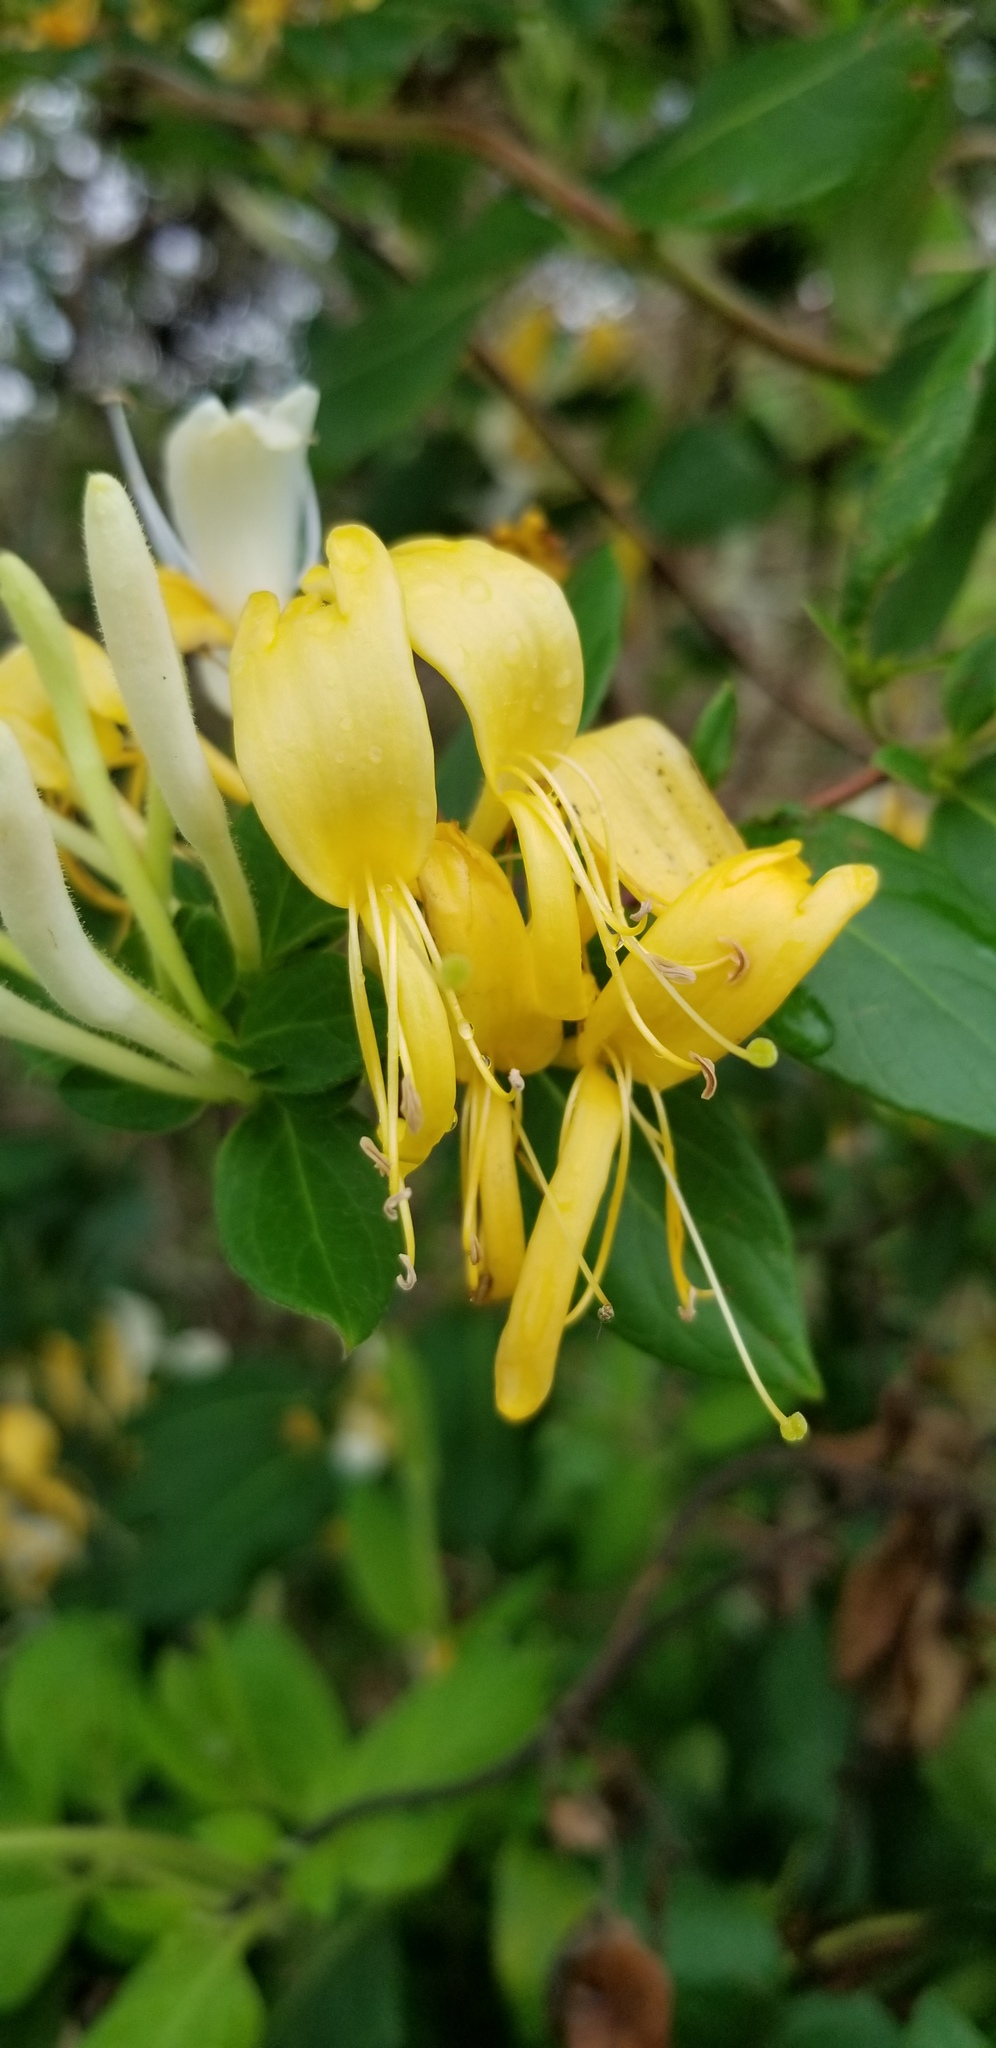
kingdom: Plantae
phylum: Tracheophyta
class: Magnoliopsida
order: Dipsacales
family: Caprifoliaceae
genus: Lonicera
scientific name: Lonicera japonica
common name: Japanese honeysuckle
